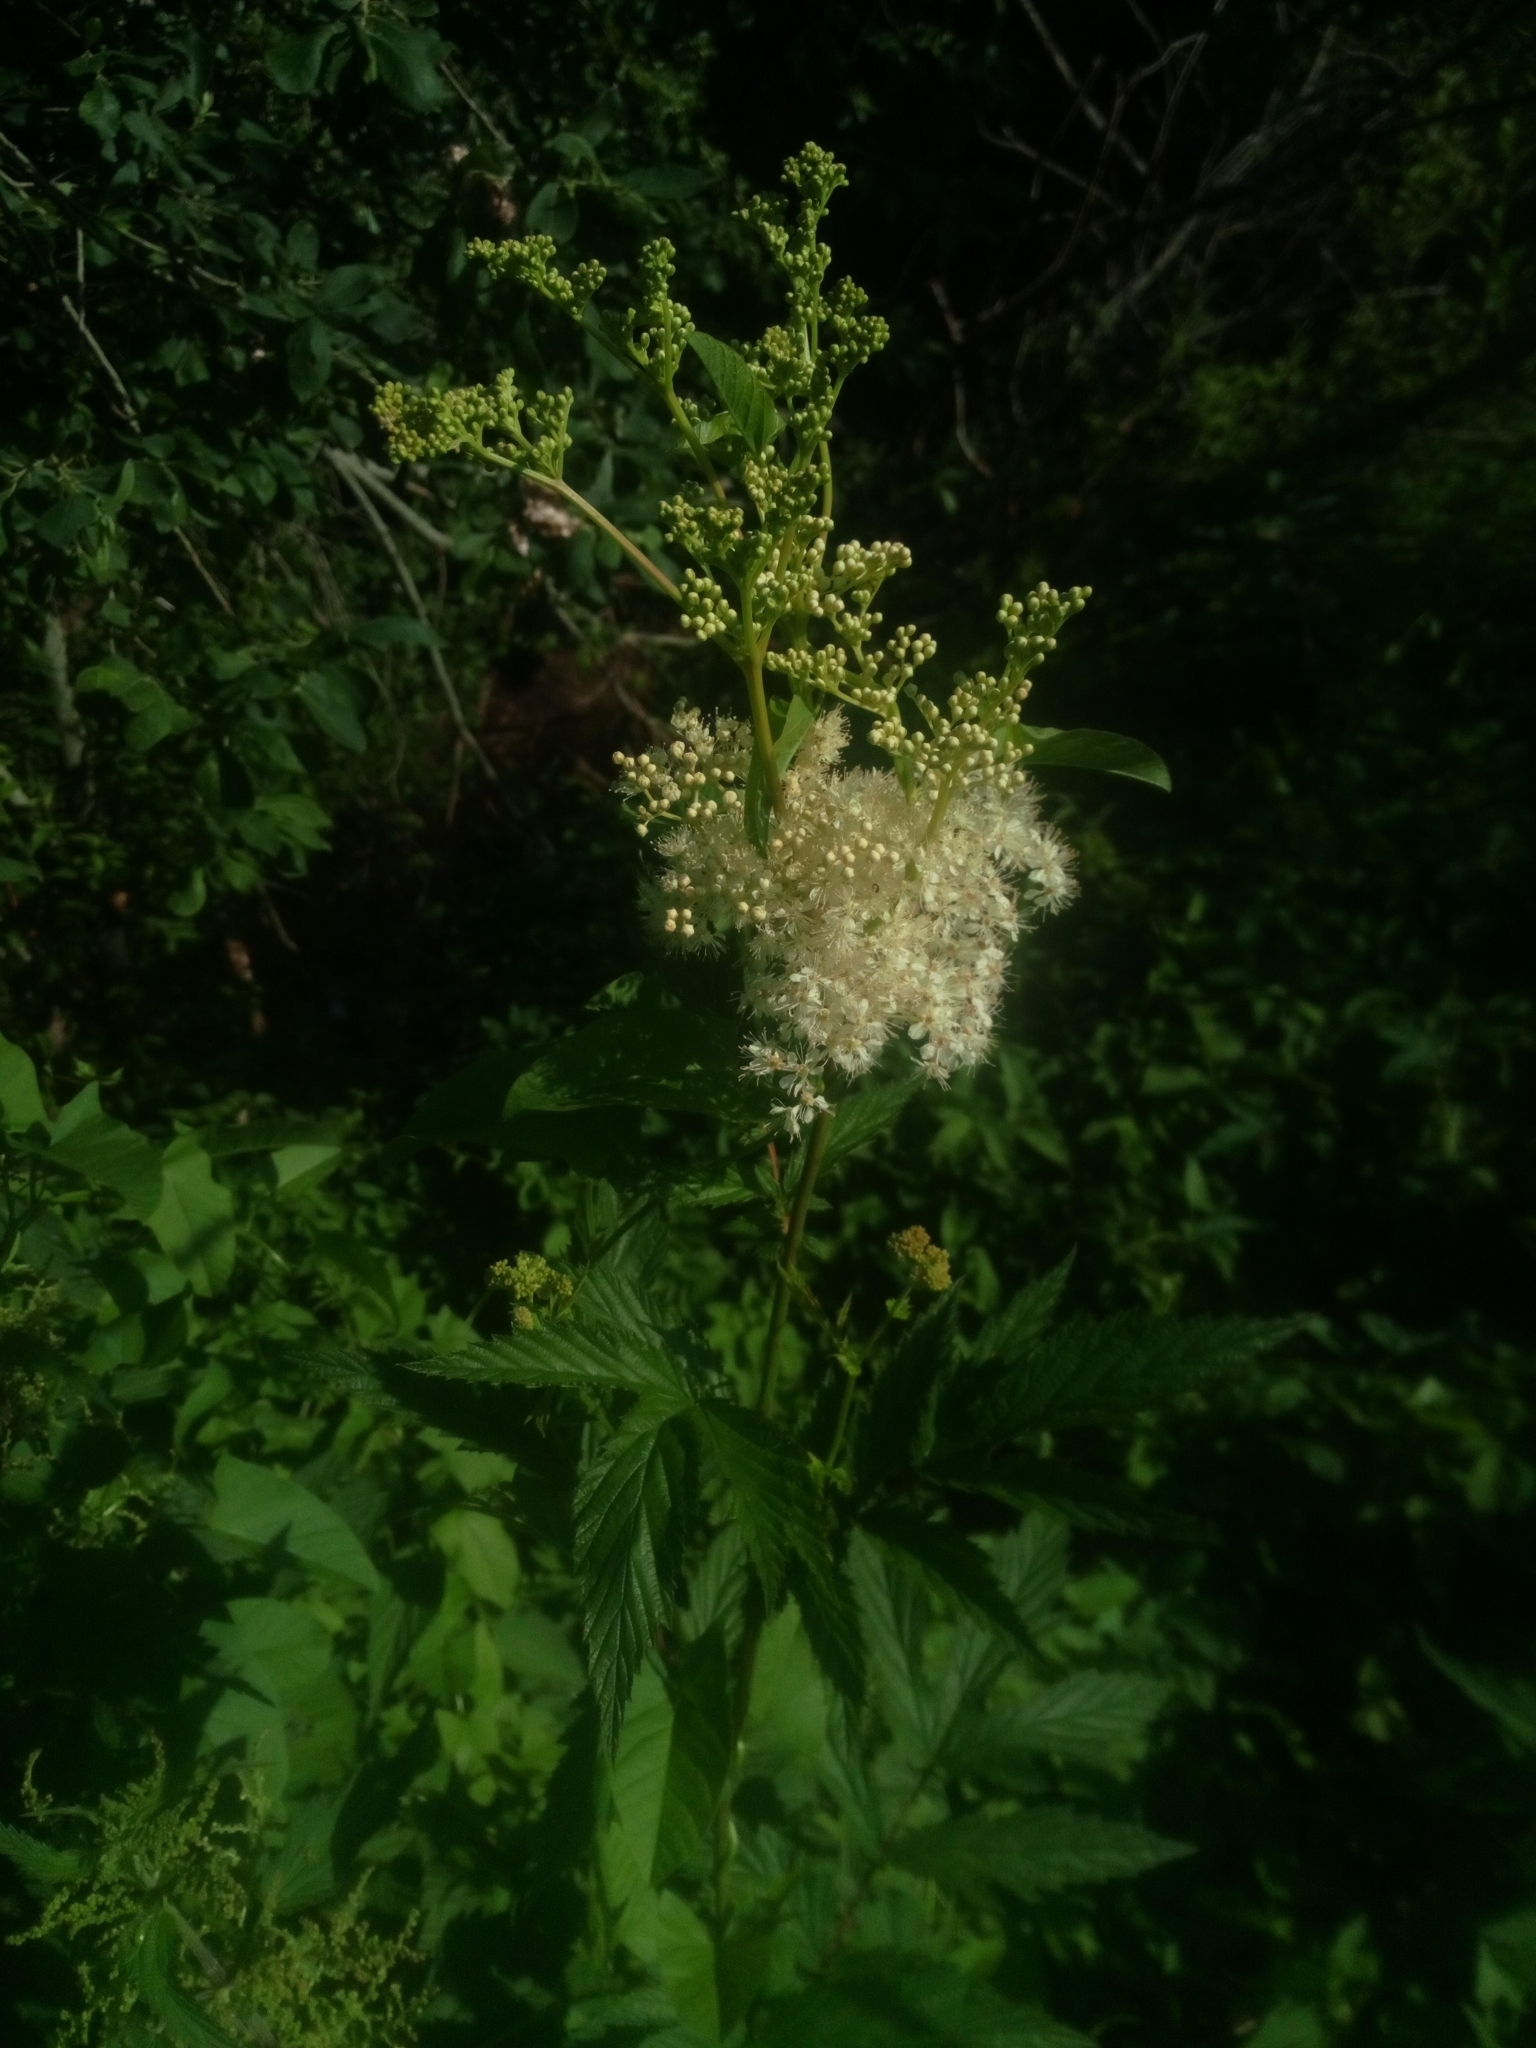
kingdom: Plantae
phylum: Tracheophyta
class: Magnoliopsida
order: Rosales
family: Rosaceae
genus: Filipendula
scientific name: Filipendula ulmaria
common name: Meadowsweet
